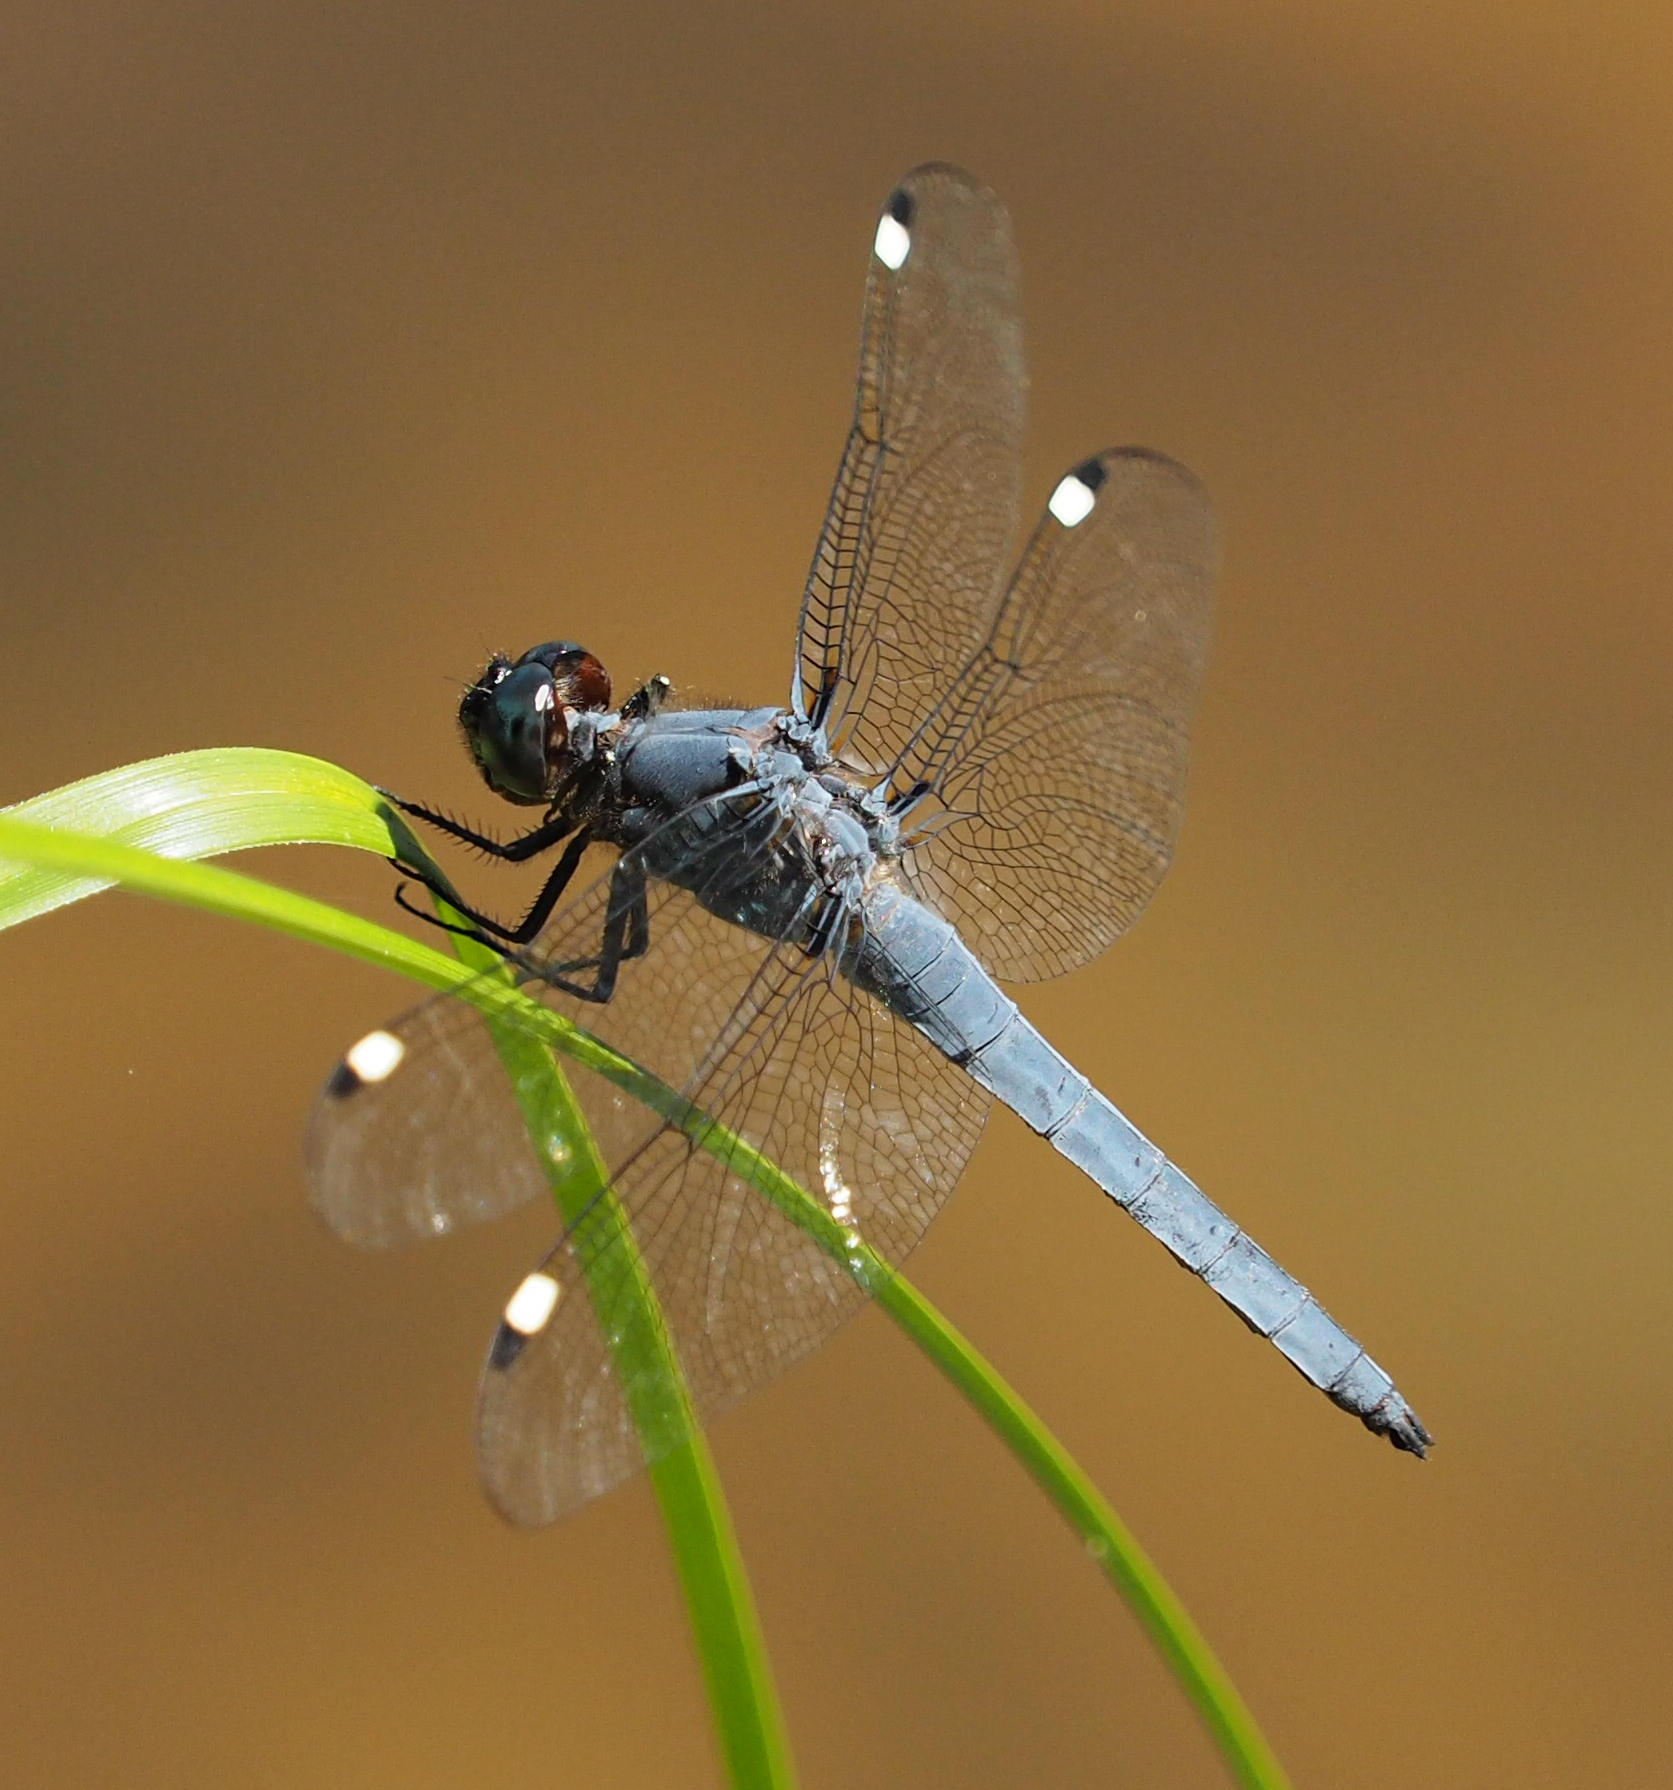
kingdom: Animalia
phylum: Arthropoda
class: Insecta
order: Odonata
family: Libellulidae
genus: Libellula
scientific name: Libellula cyanea
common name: Spangled skimmer
